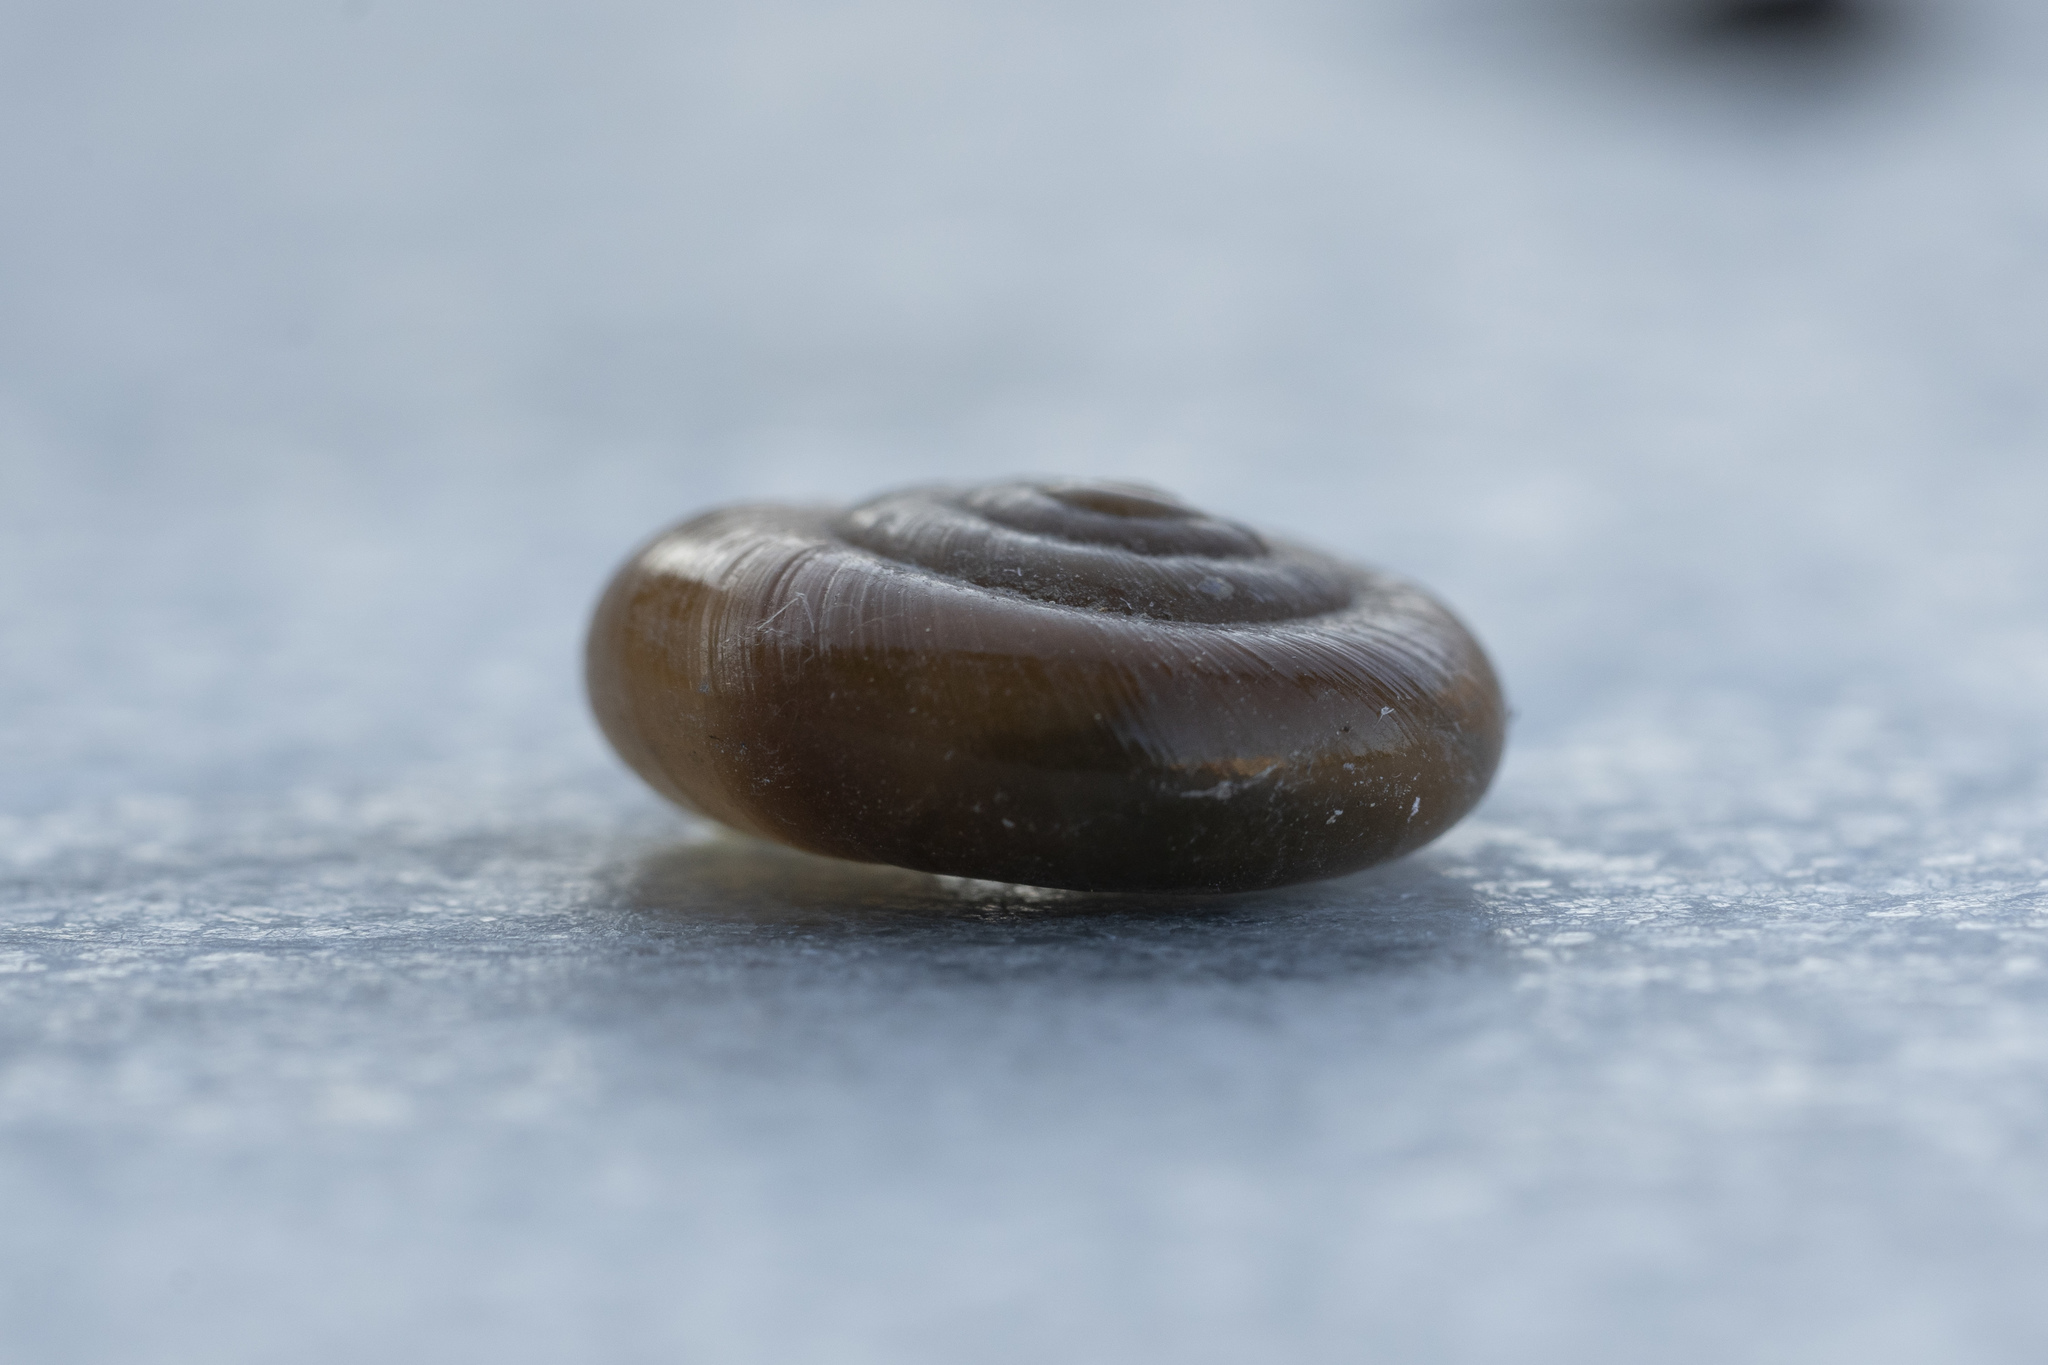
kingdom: Animalia
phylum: Mollusca
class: Gastropoda
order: Stylommatophora
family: Oxychilidae
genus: Oxychilus
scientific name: Oxychilus cyprius
